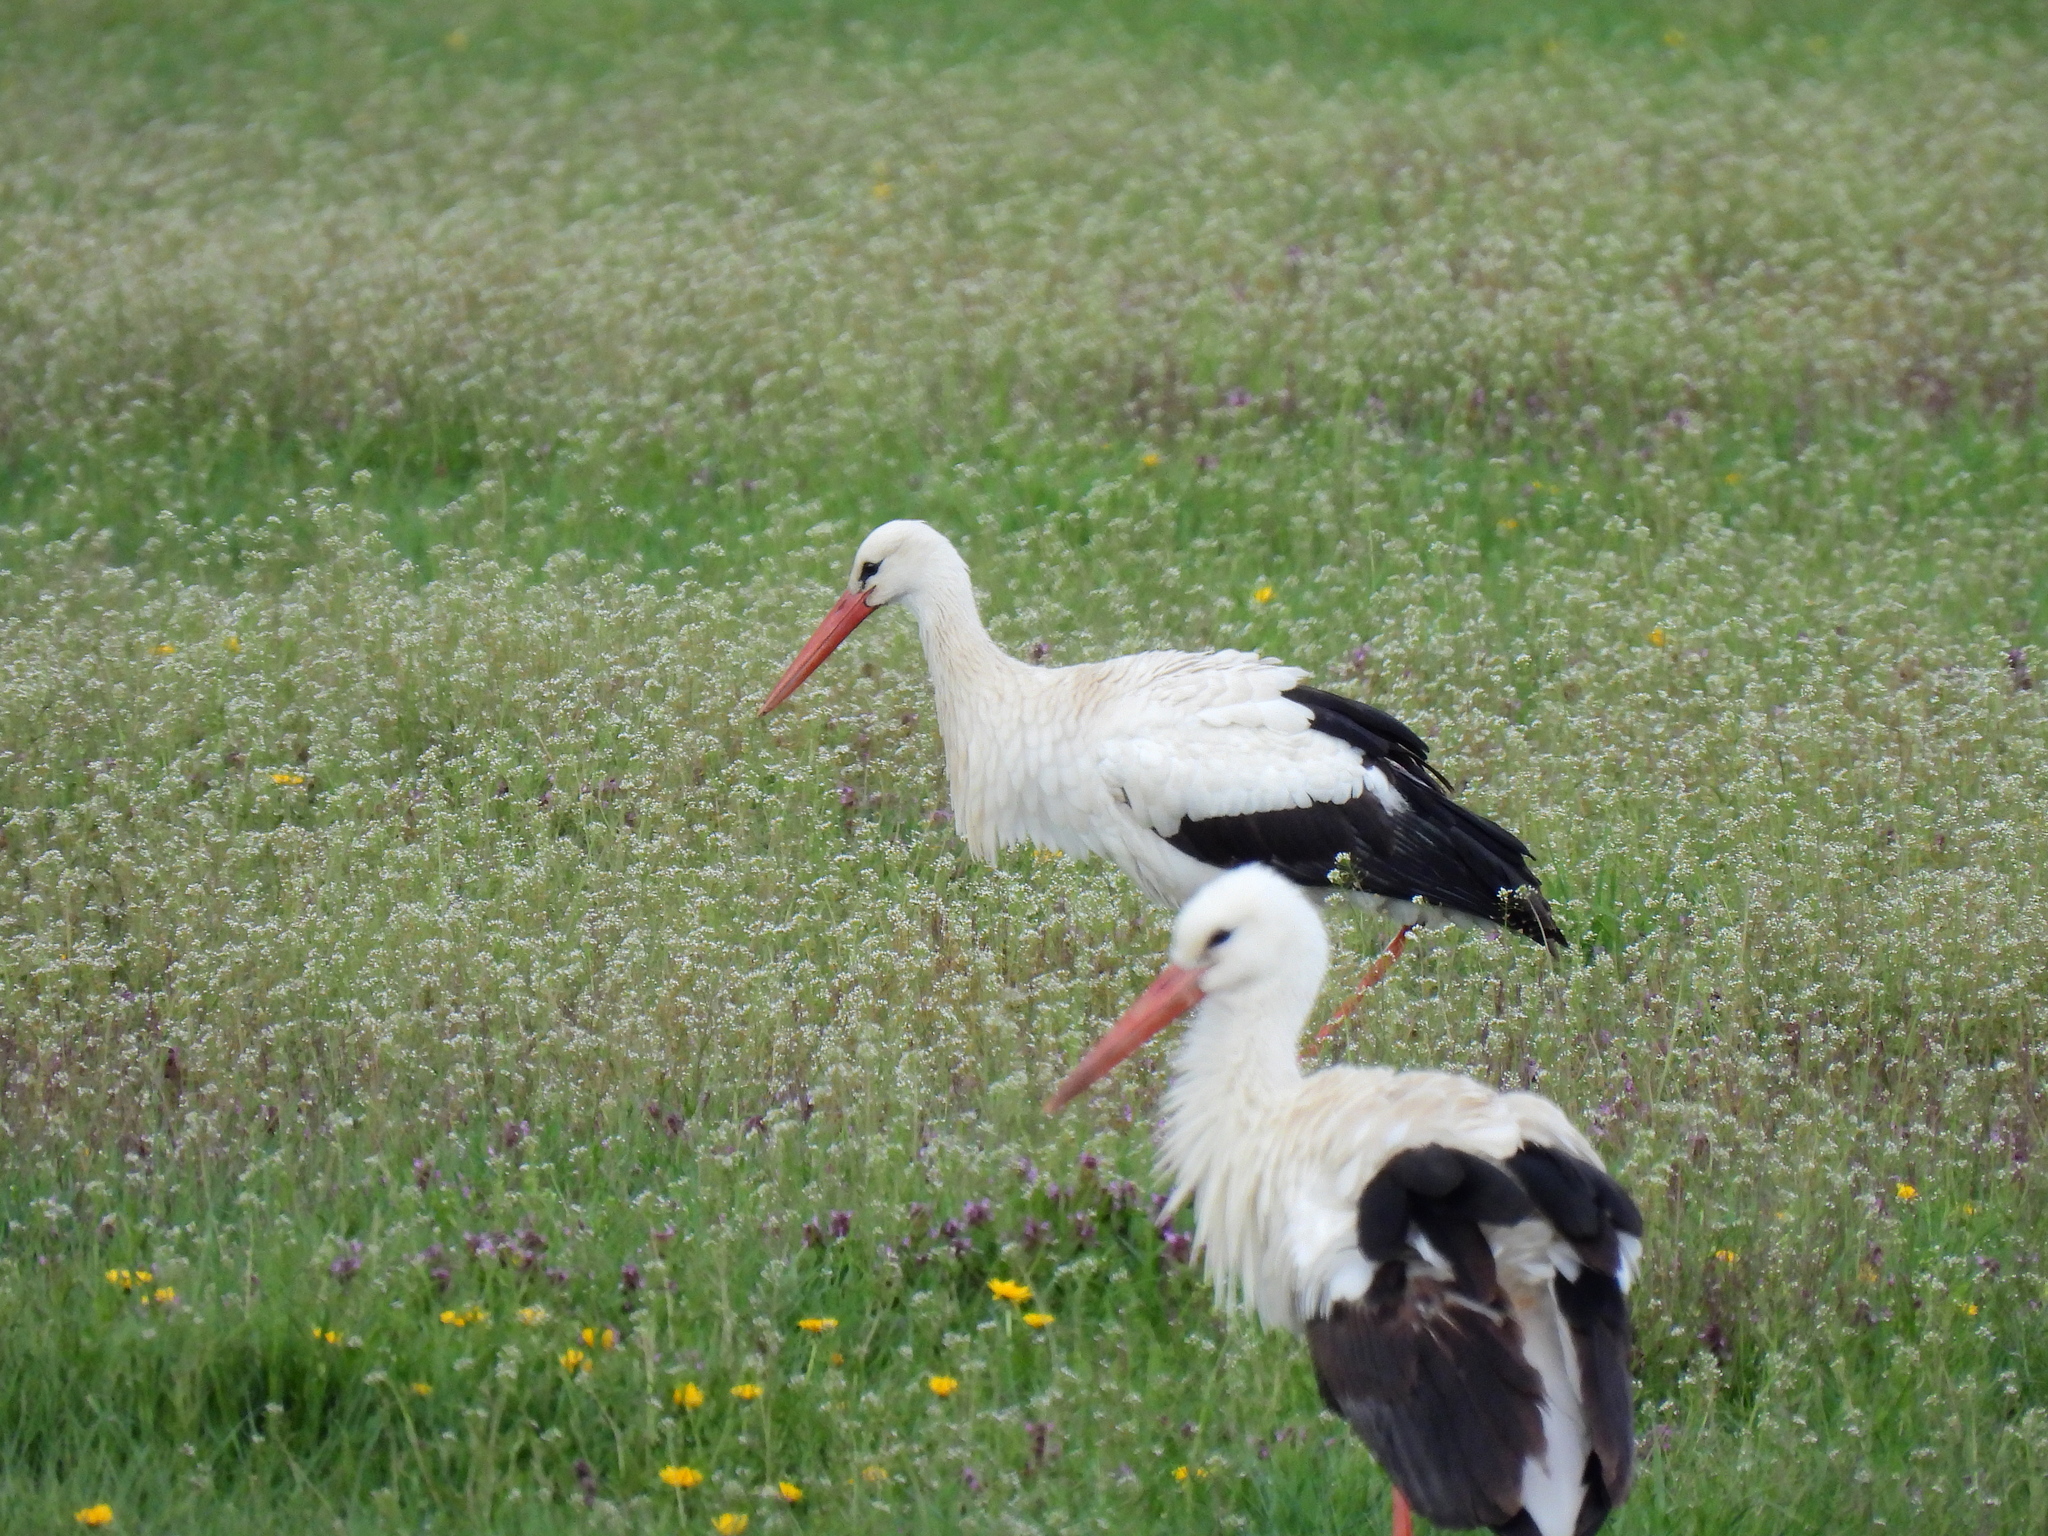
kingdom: Animalia
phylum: Chordata
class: Aves
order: Ciconiiformes
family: Ciconiidae
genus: Ciconia
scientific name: Ciconia ciconia
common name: White stork
